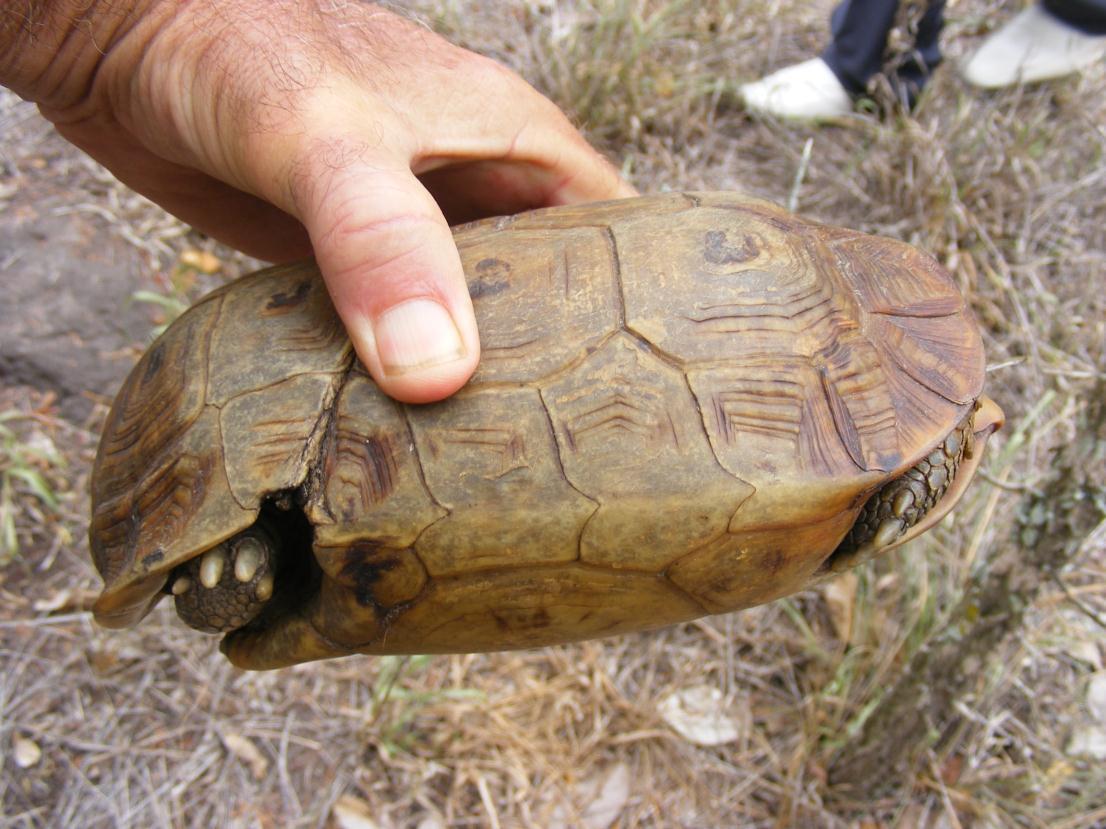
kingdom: Animalia
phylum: Chordata
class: Testudines
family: Testudinidae
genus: Kinixys
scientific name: Kinixys spekii
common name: Speke's hingeback tortoise
